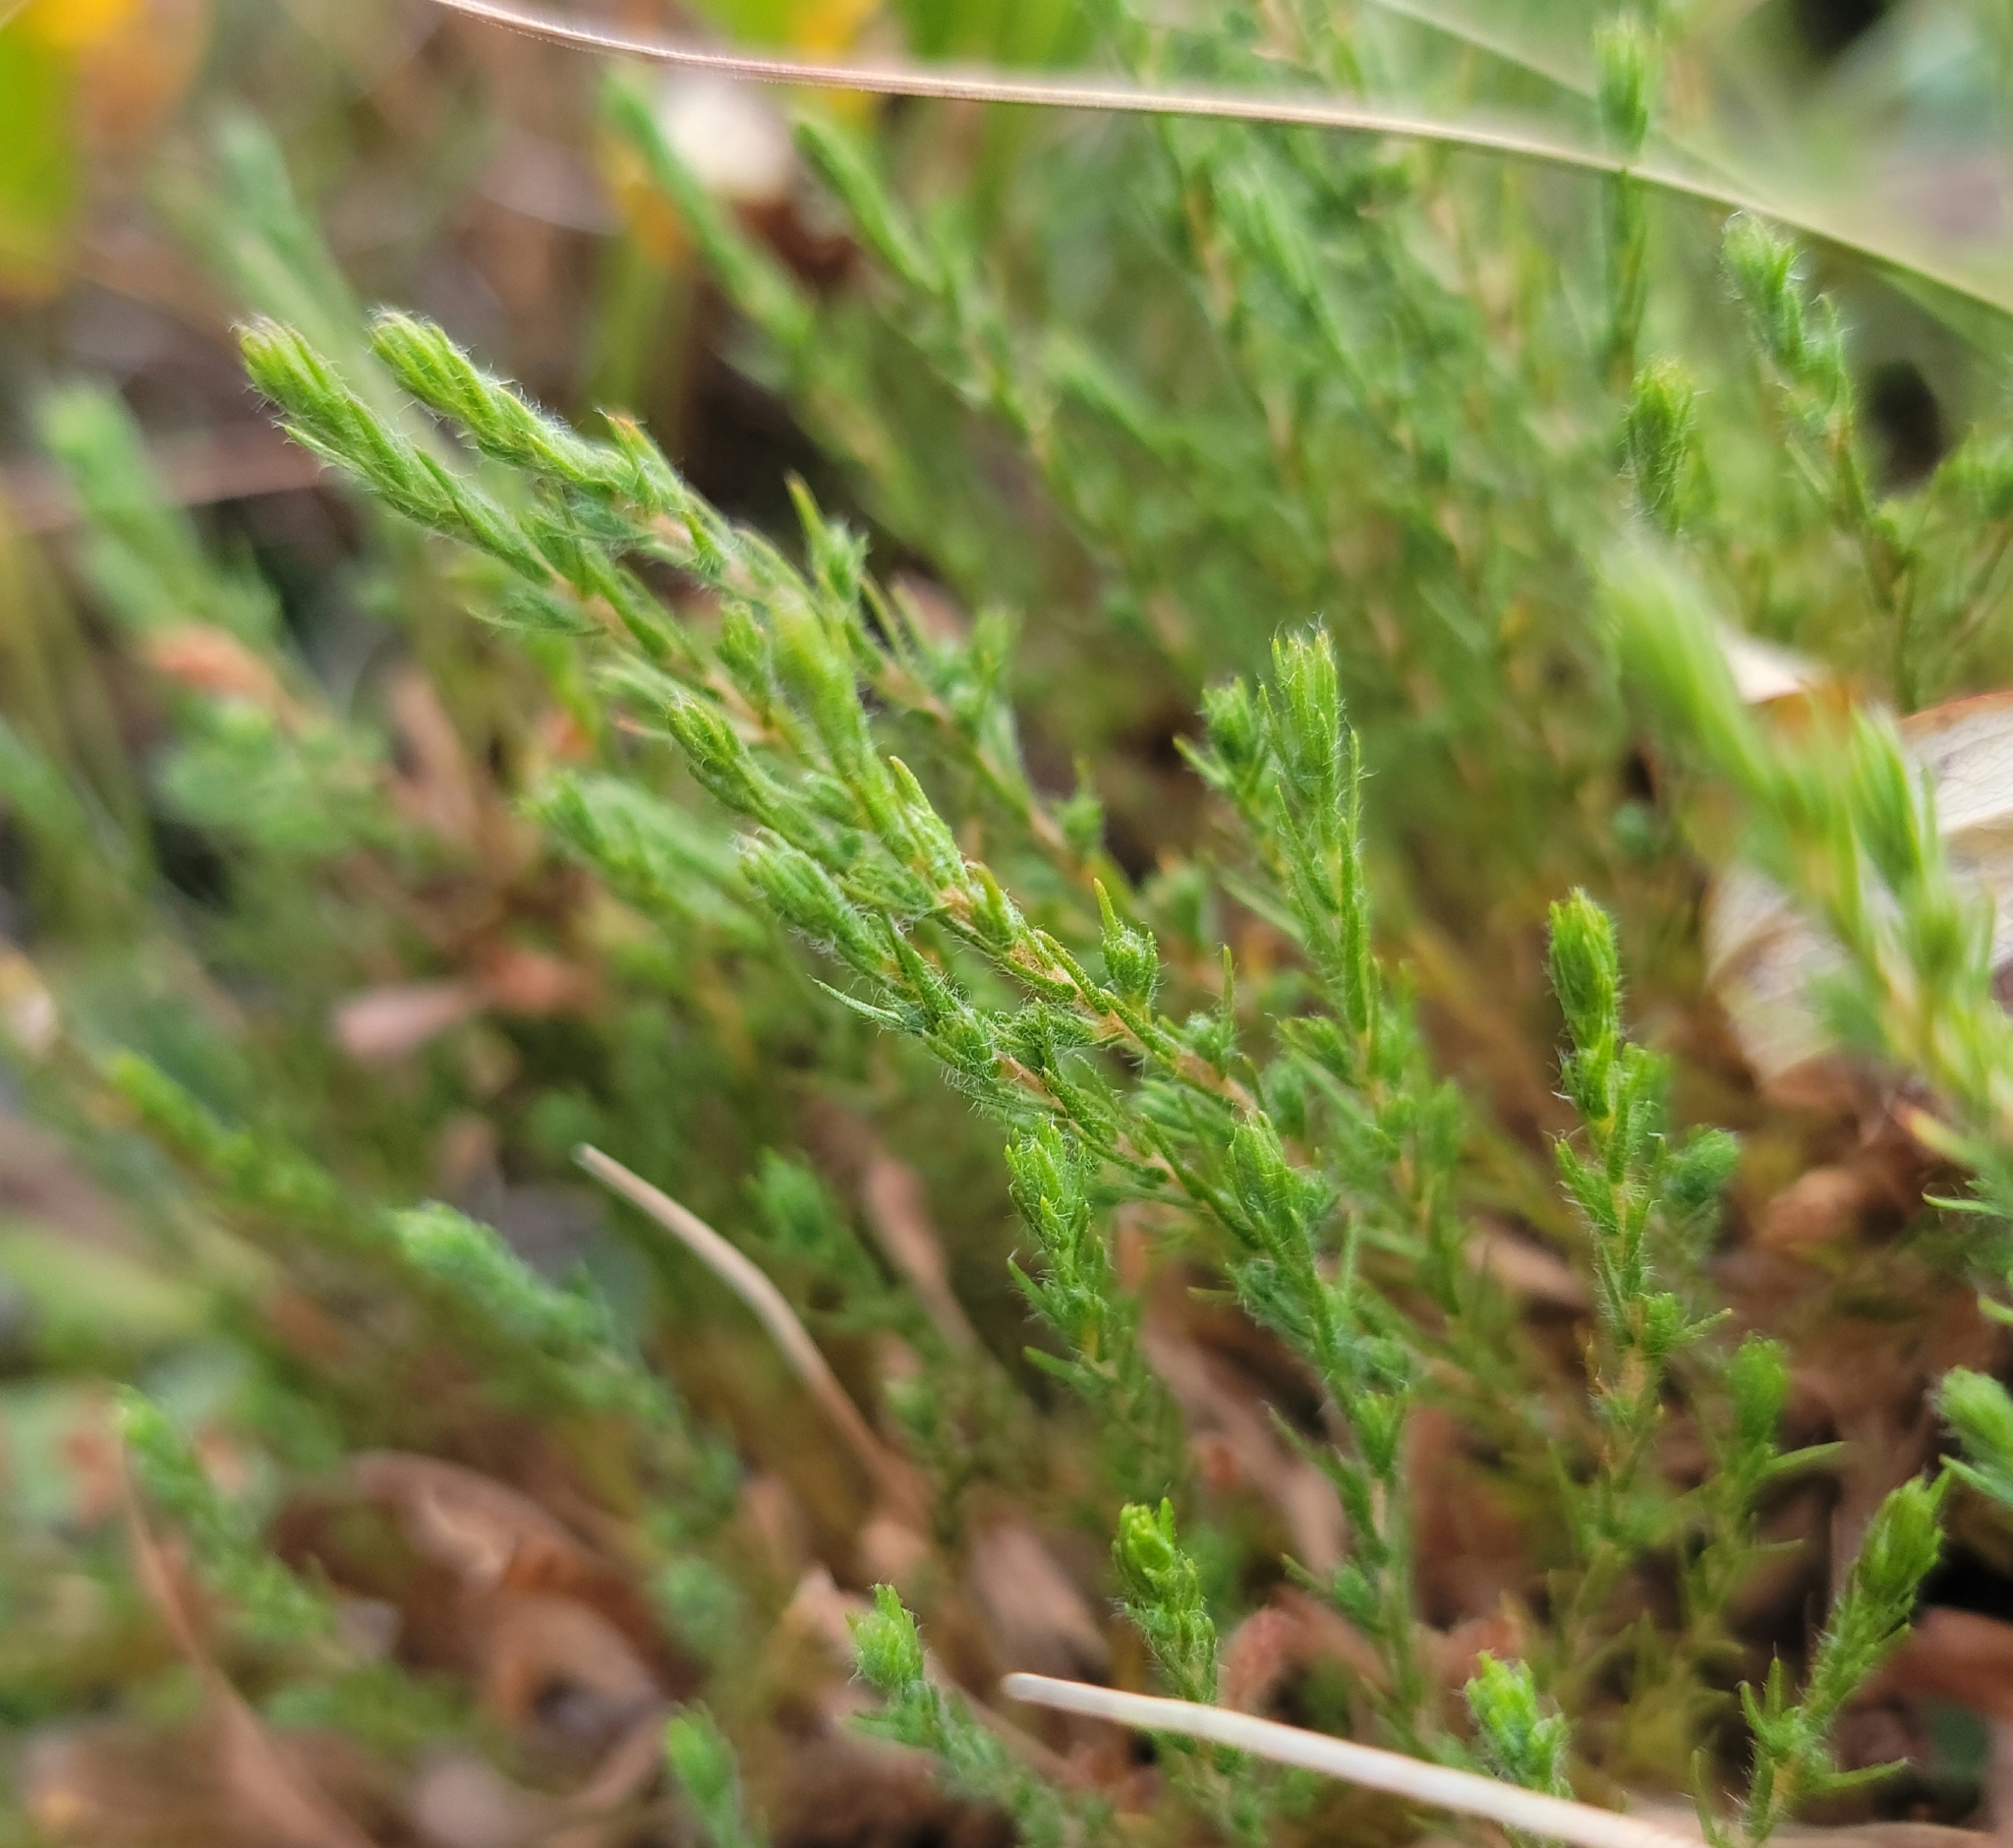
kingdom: Plantae
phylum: Tracheophyta
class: Magnoliopsida
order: Malvales
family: Cistaceae
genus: Hudsonia
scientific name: Hudsonia ericoides
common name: Golden-heather
